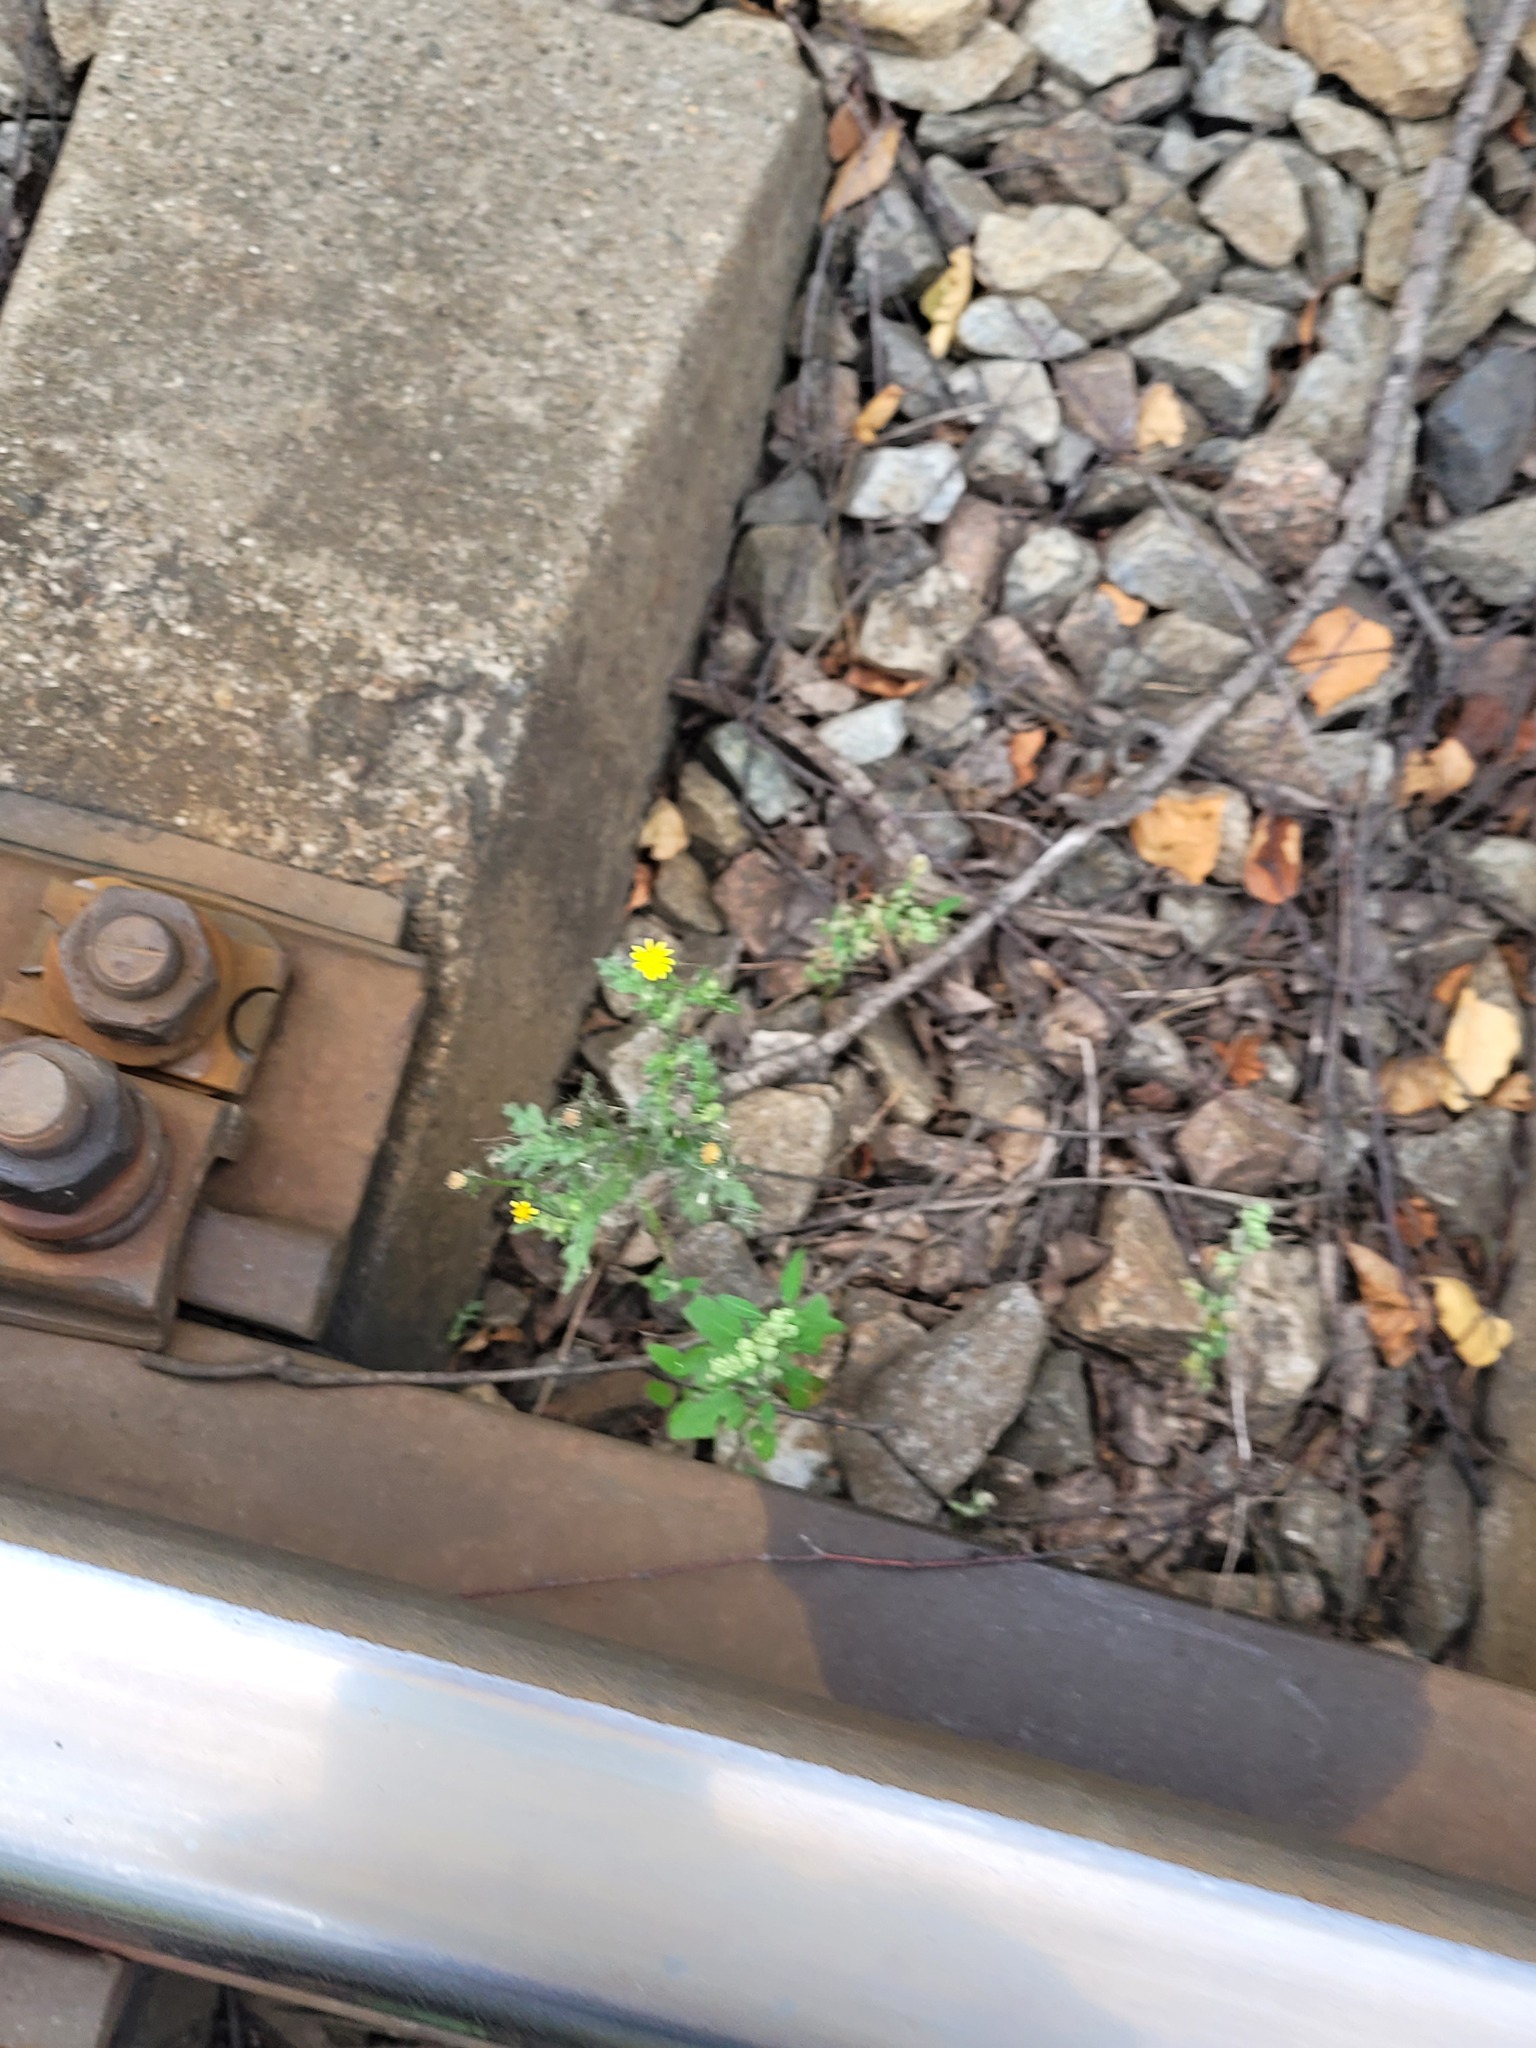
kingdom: Plantae
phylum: Tracheophyta
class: Magnoliopsida
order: Asterales
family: Asteraceae
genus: Senecio
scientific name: Senecio viscosus
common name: Sticky groundsel
